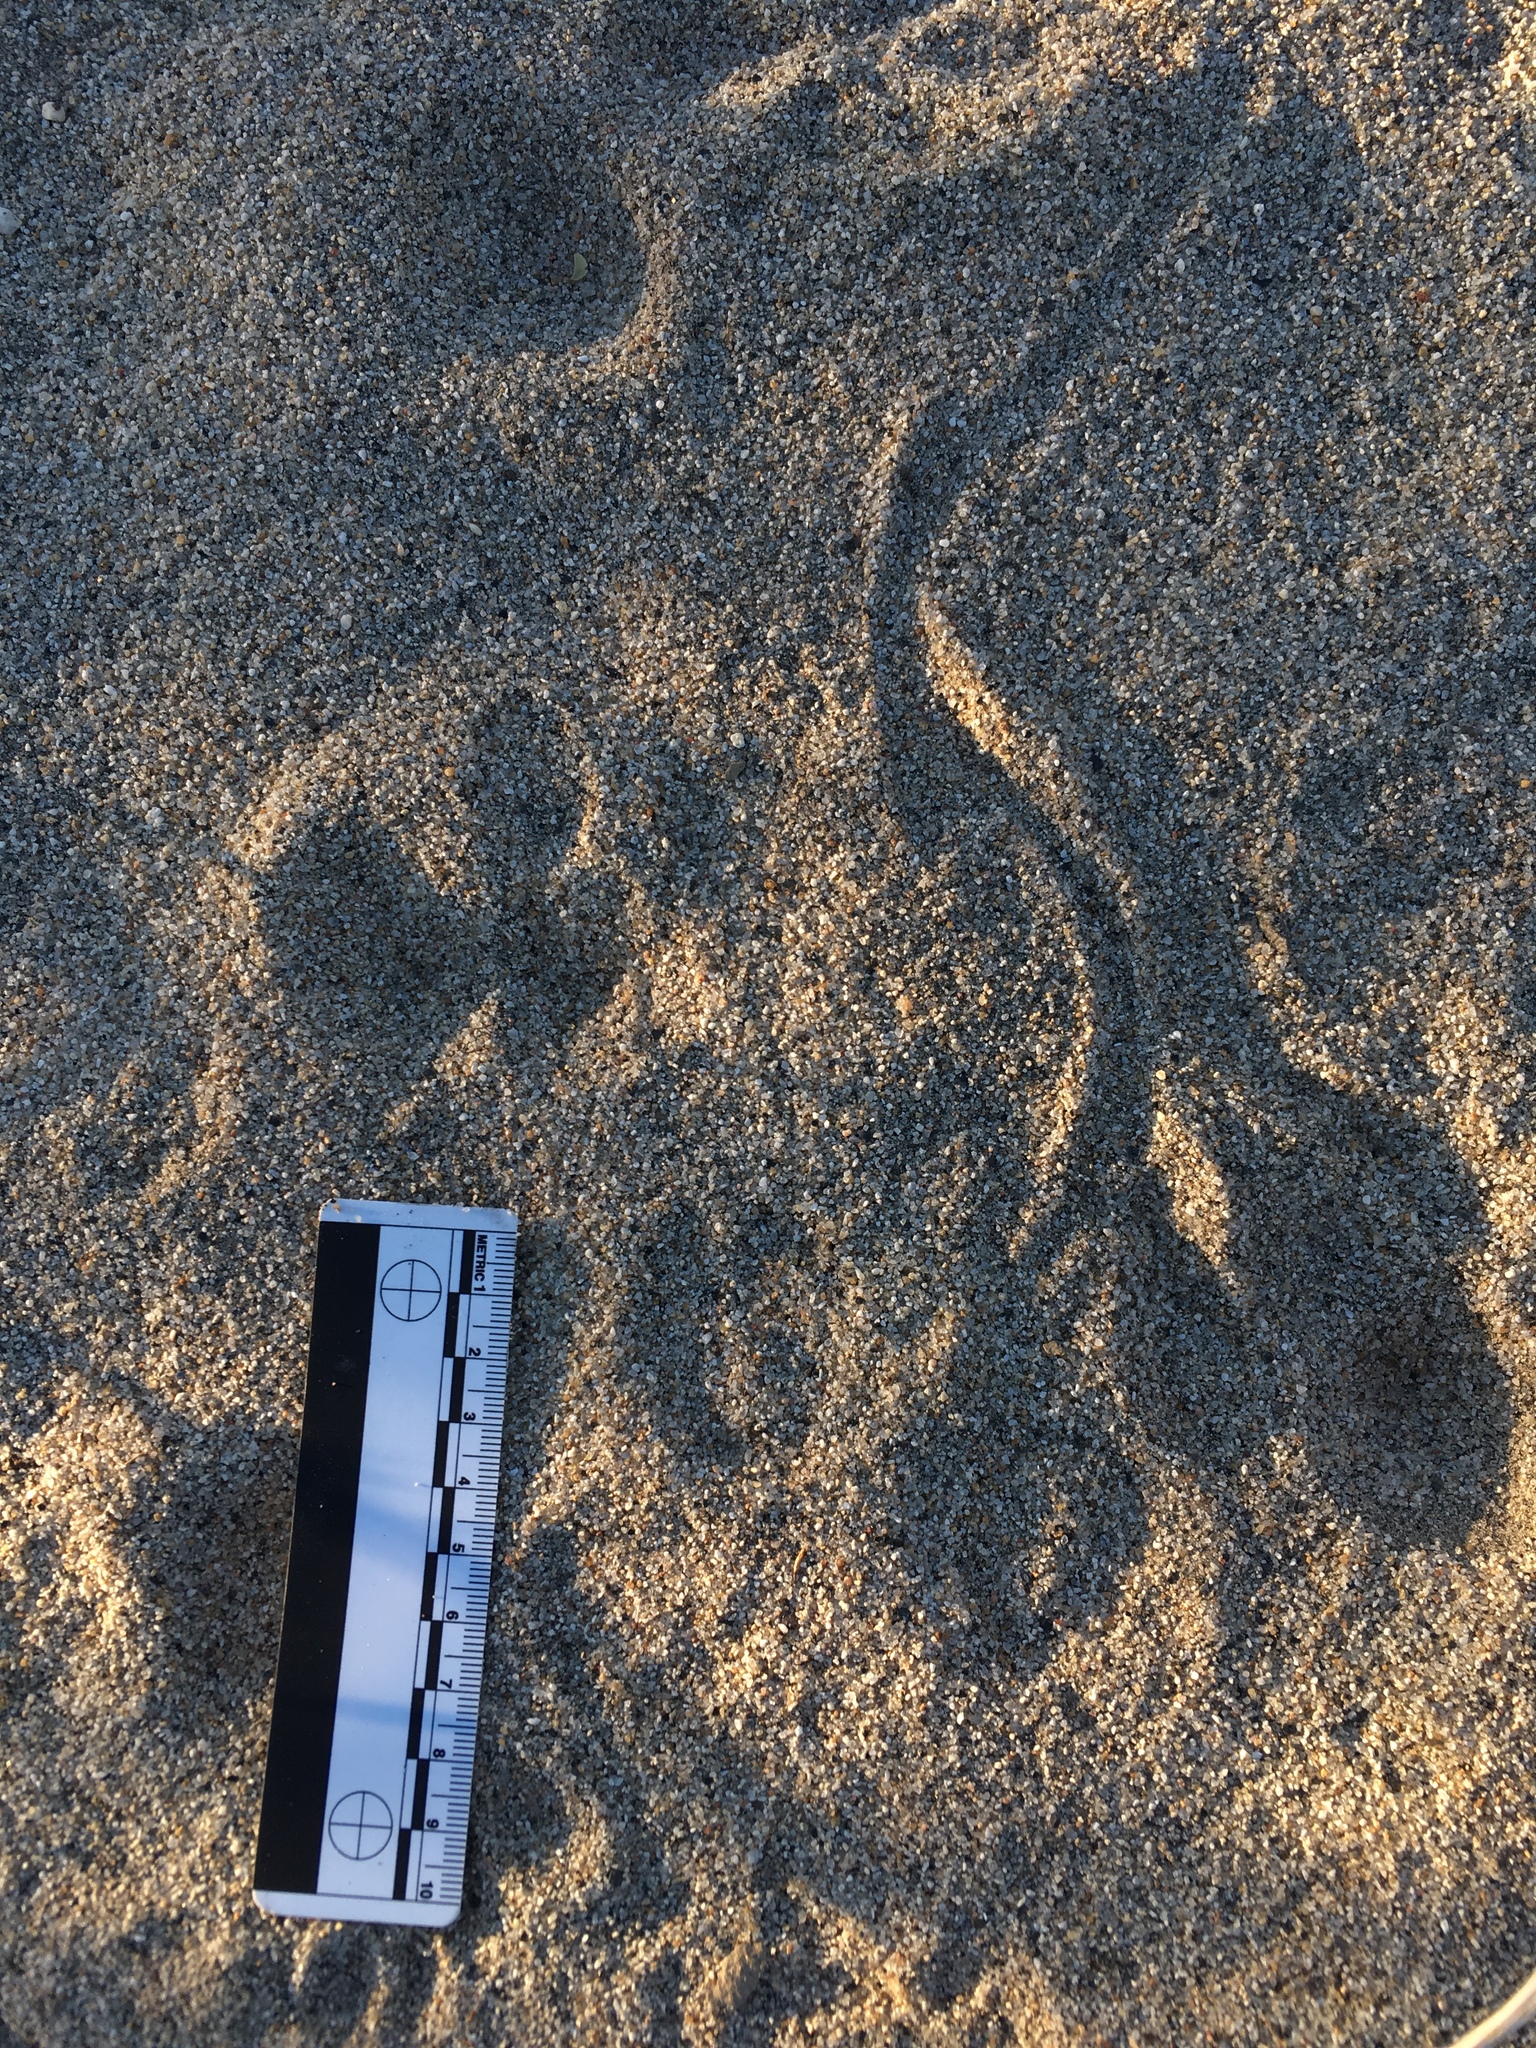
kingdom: Animalia
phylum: Chordata
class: Mammalia
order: Rodentia
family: Heteromyidae
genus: Dipodomys
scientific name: Dipodomys deserti
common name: Desert kangaroo rat
